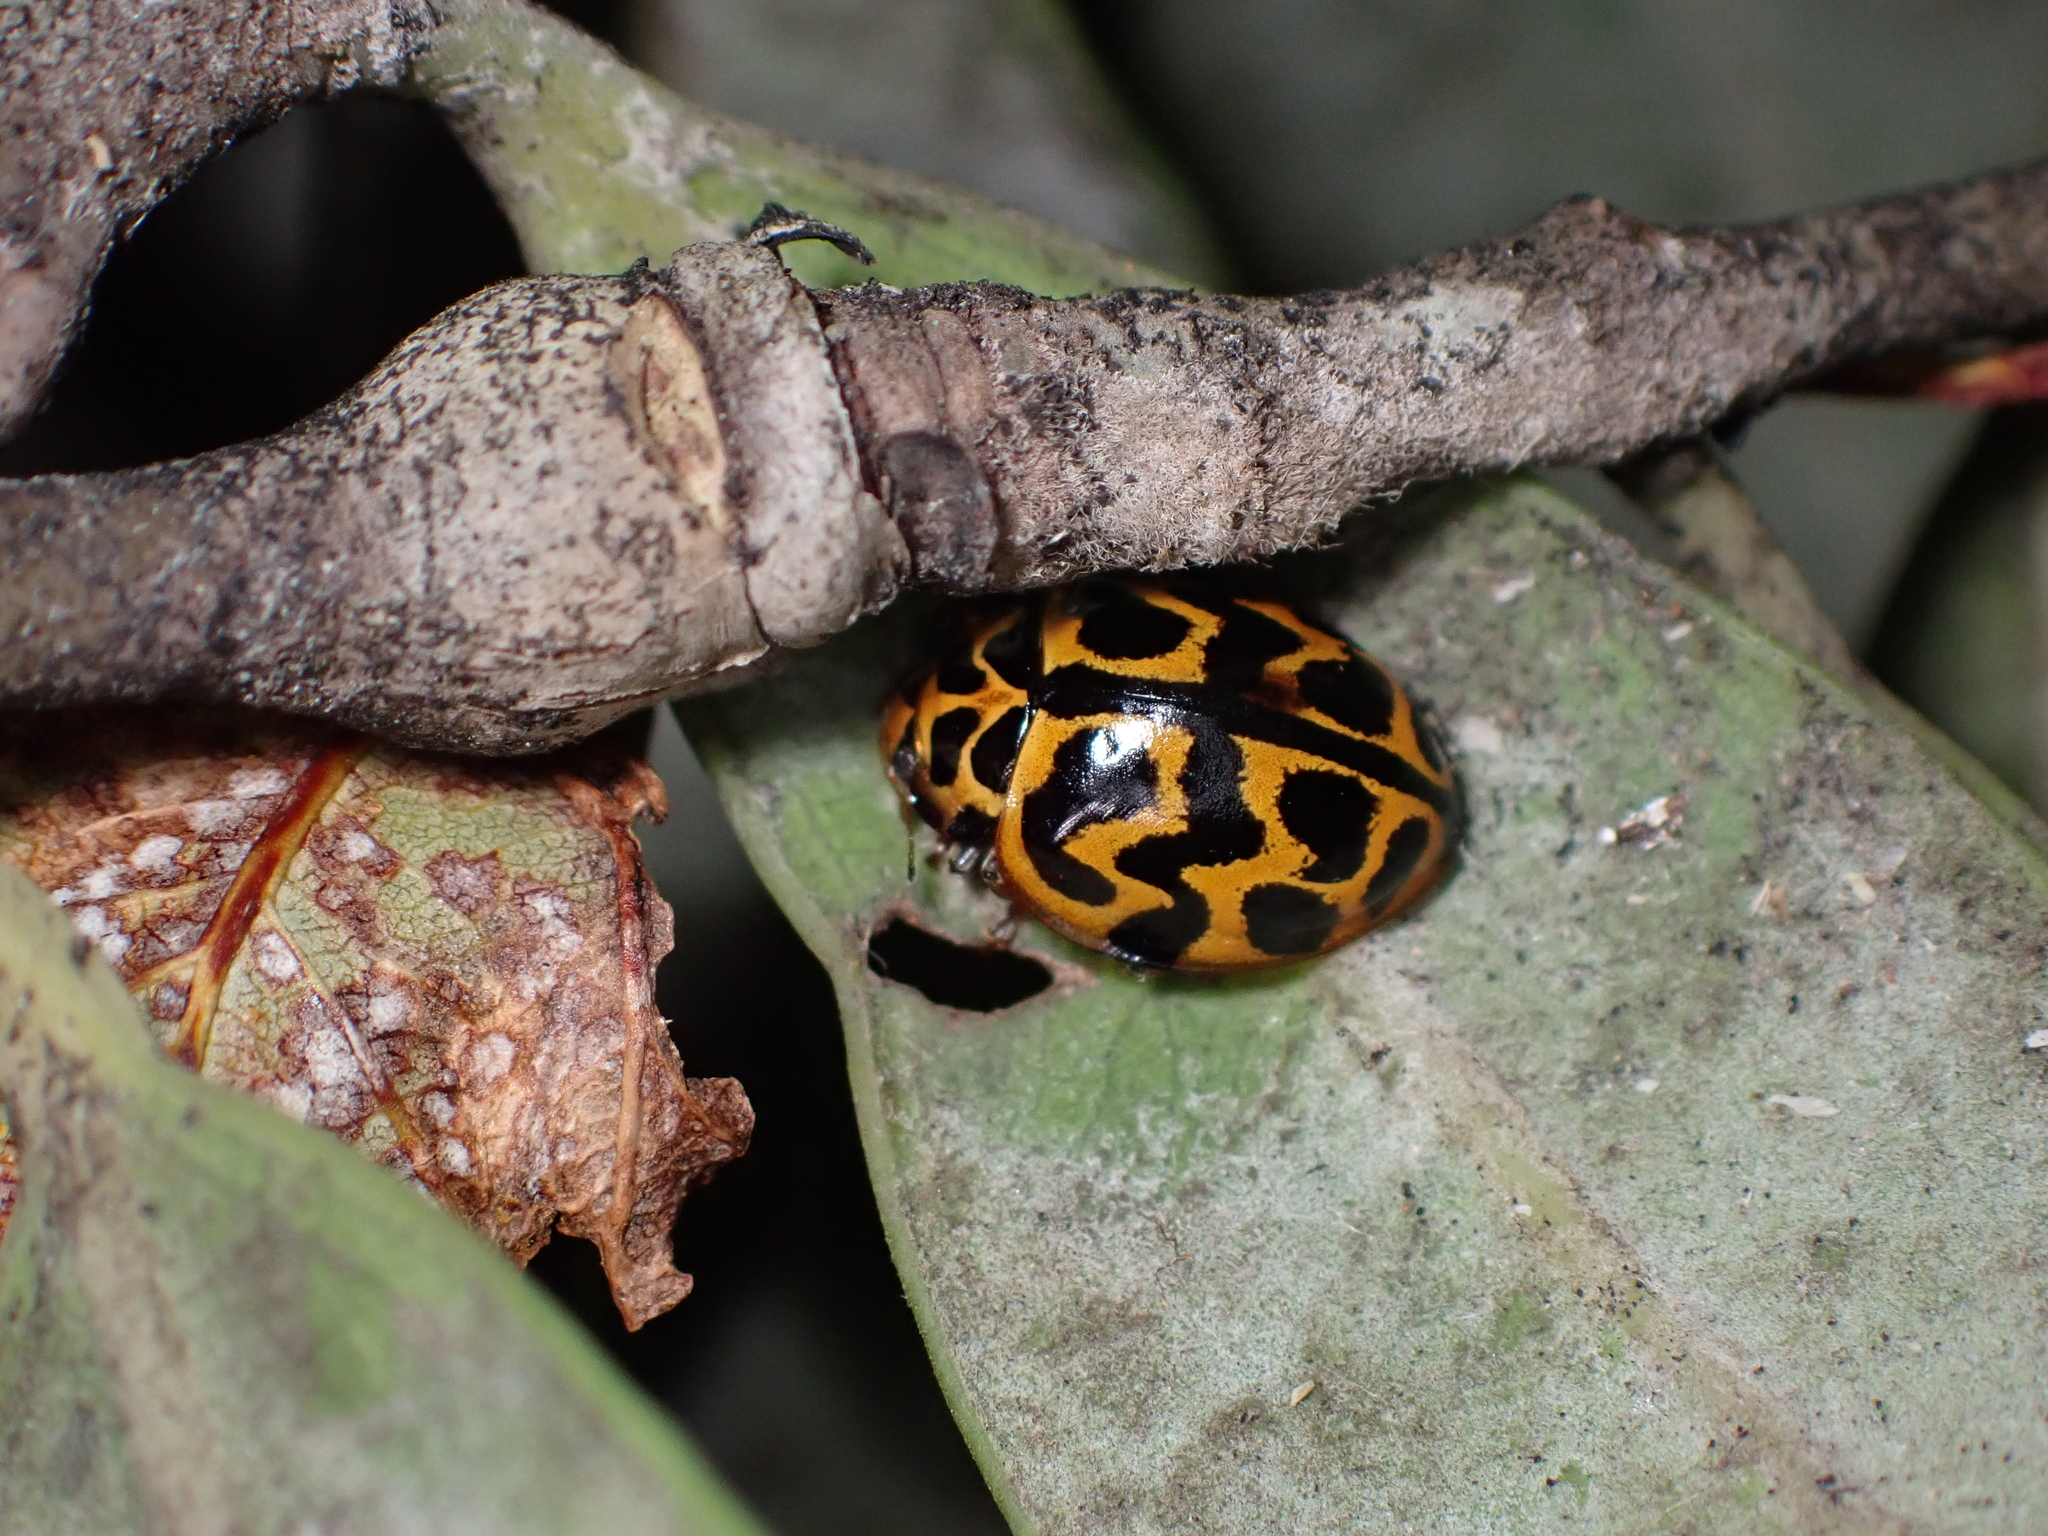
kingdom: Animalia
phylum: Arthropoda
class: Insecta
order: Coleoptera
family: Coccinellidae
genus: Cleobora
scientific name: Cleobora
